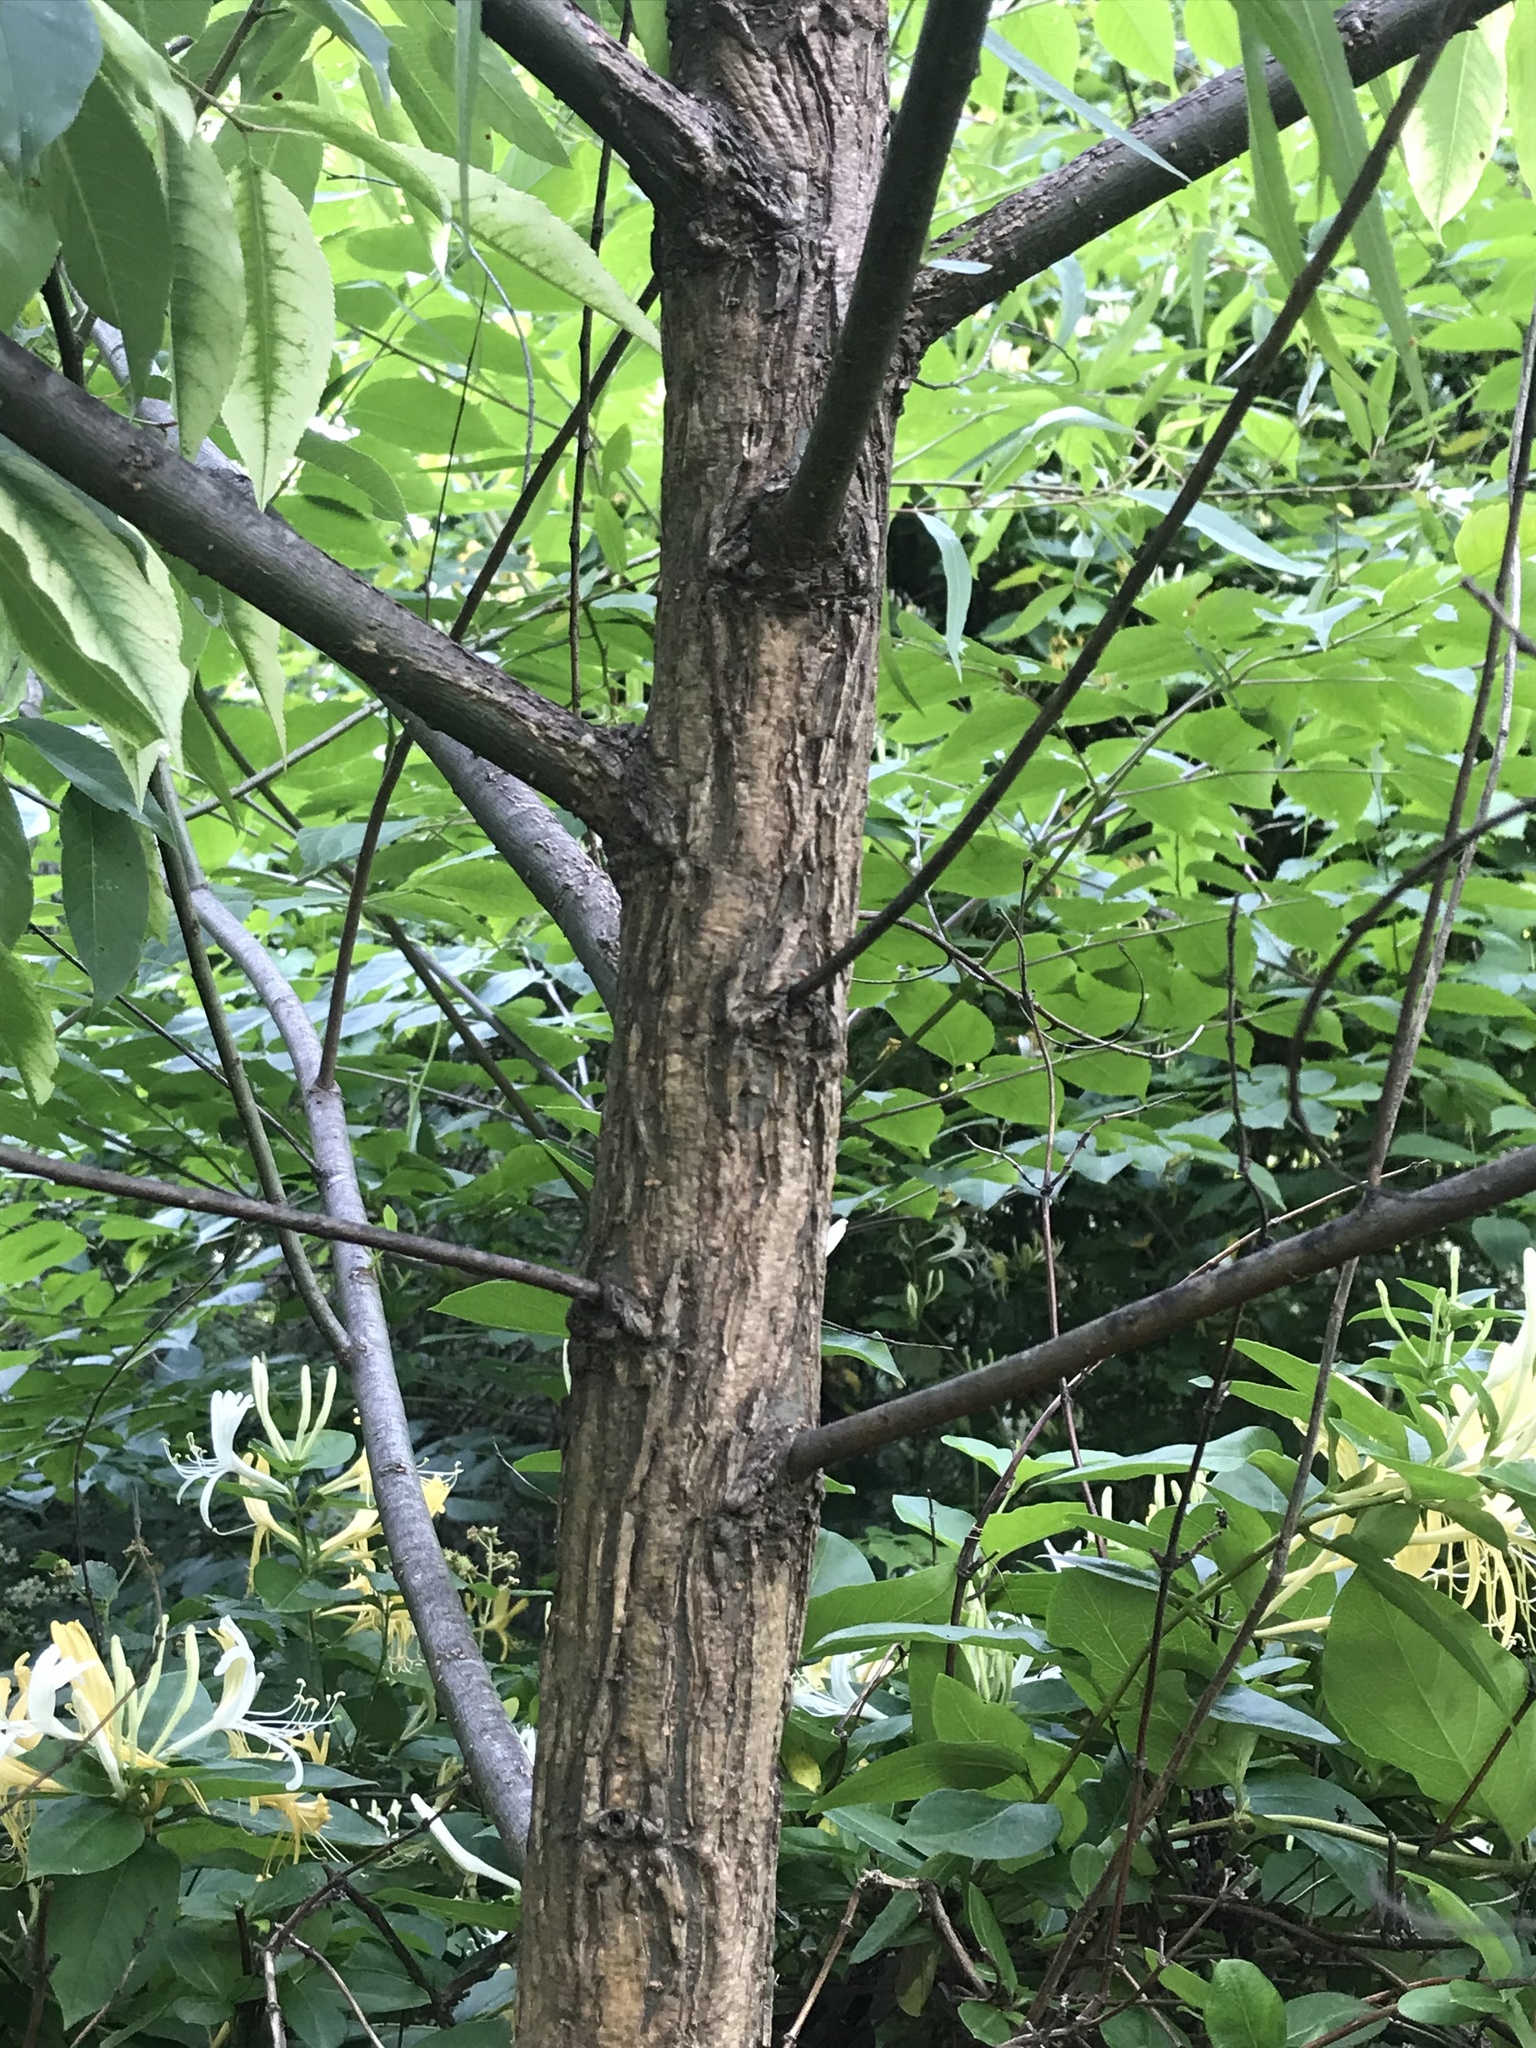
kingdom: Plantae
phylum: Tracheophyta
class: Magnoliopsida
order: Malpighiales
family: Salicaceae
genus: Salix
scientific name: Salix nigra
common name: Black willow
